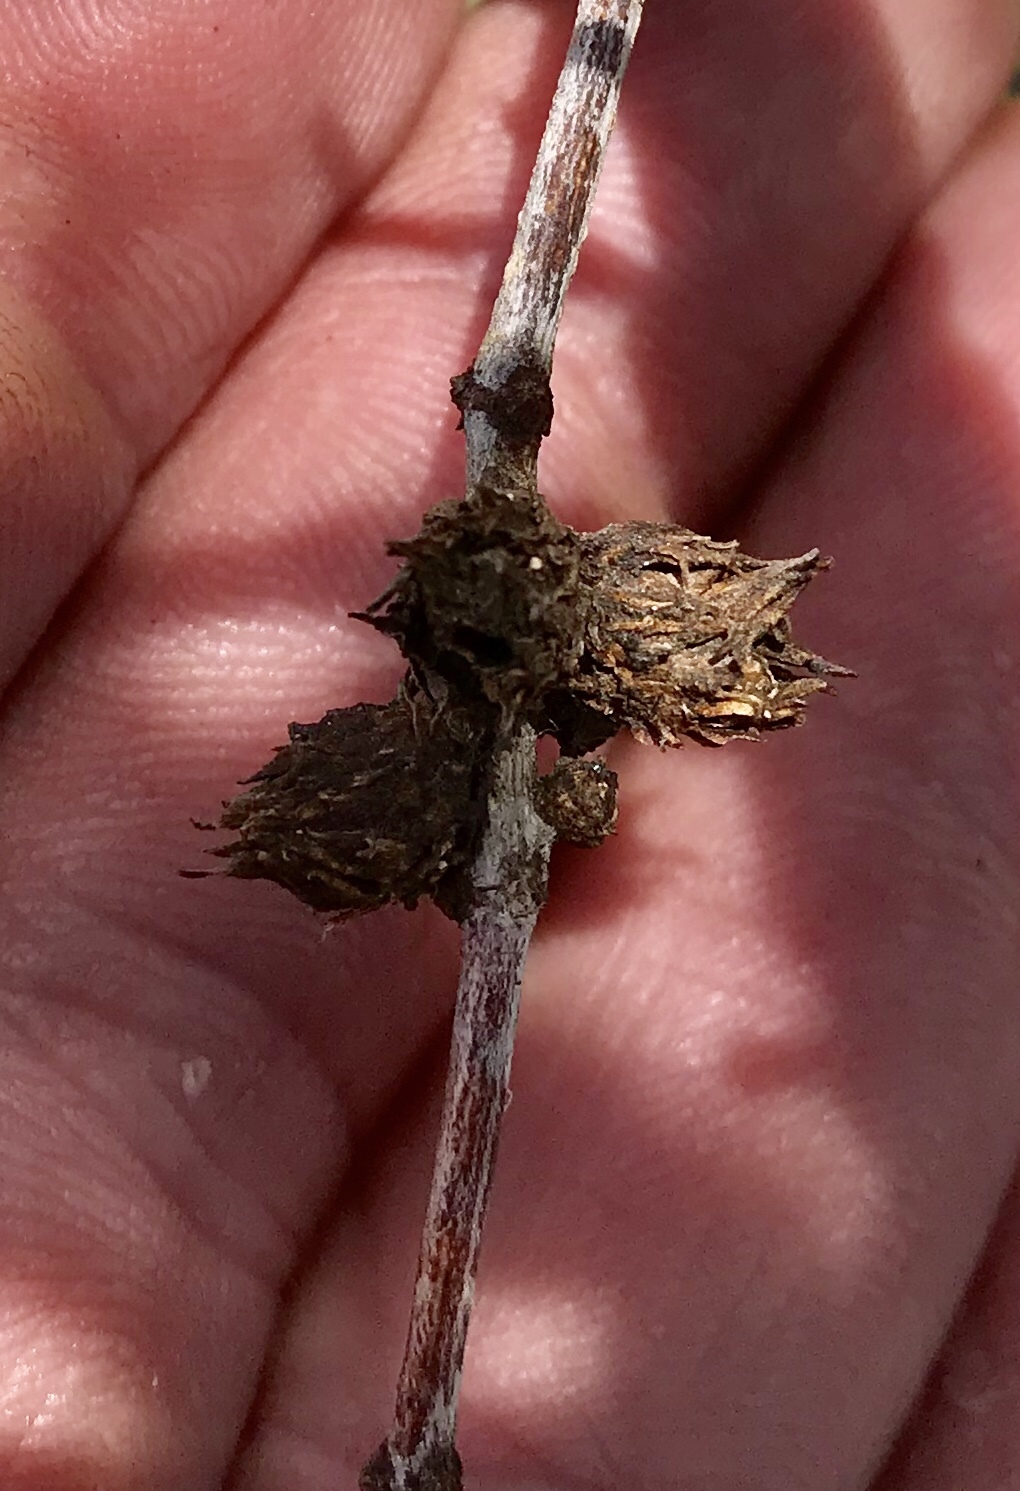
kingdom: Animalia
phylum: Arthropoda
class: Insecta
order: Diptera
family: Cecidomyiidae
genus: Asphondylia
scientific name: Asphondylia foliosa
